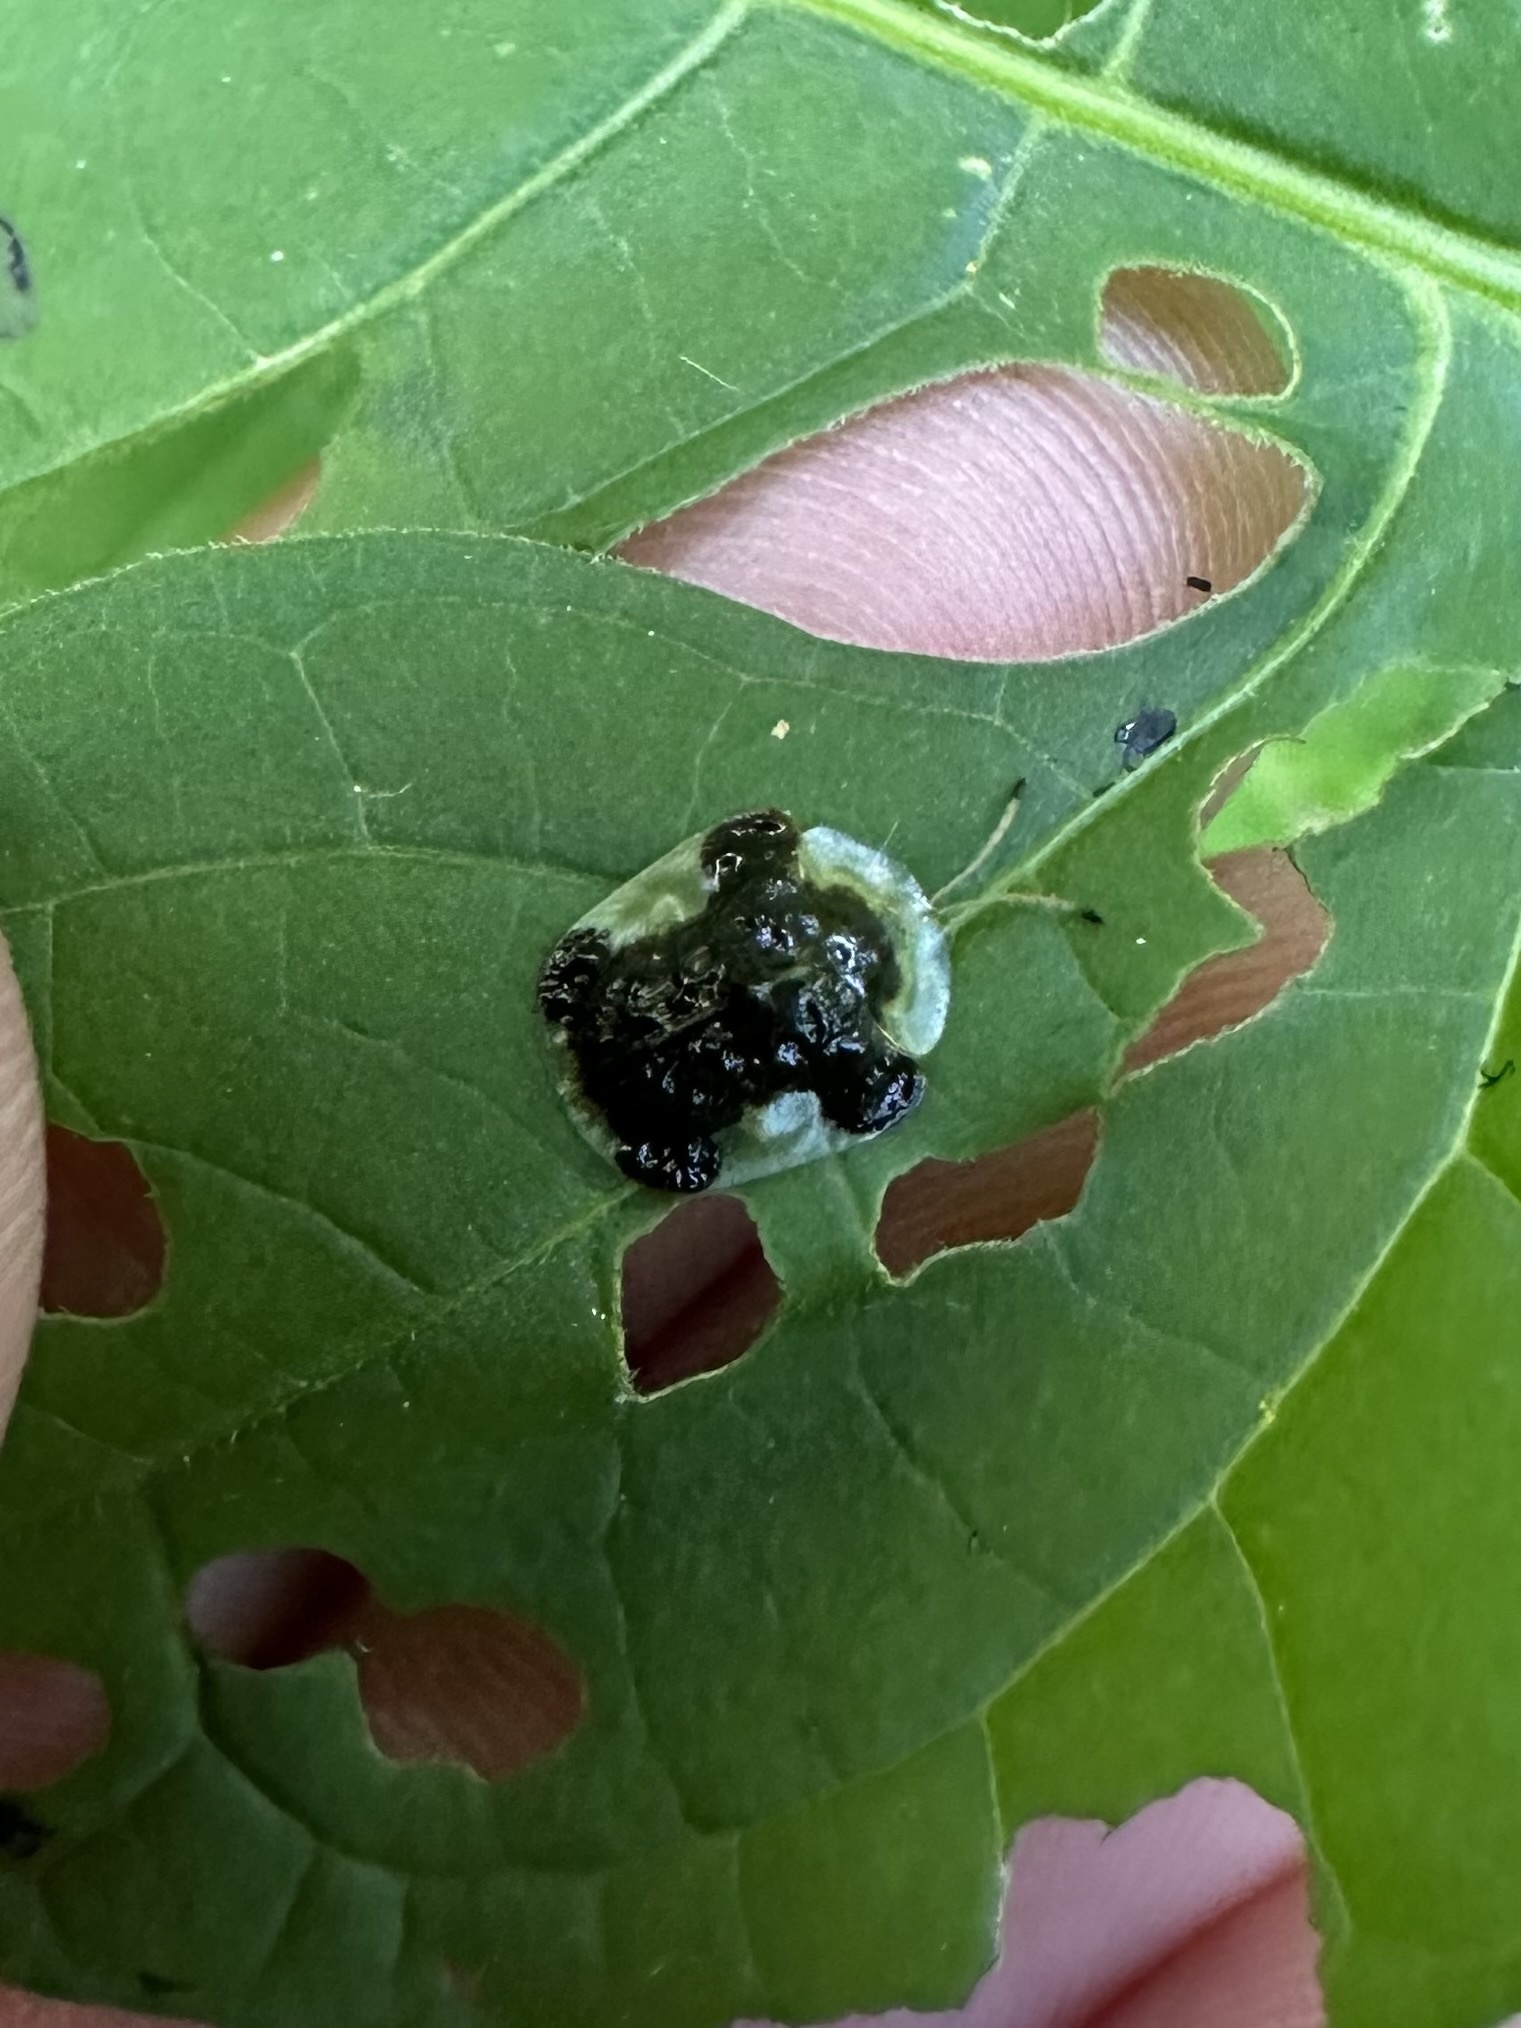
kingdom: Animalia
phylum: Arthropoda
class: Insecta
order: Coleoptera
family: Chrysomelidae
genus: Helocassis
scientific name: Helocassis clavata
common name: Clavate tortoise beetle
